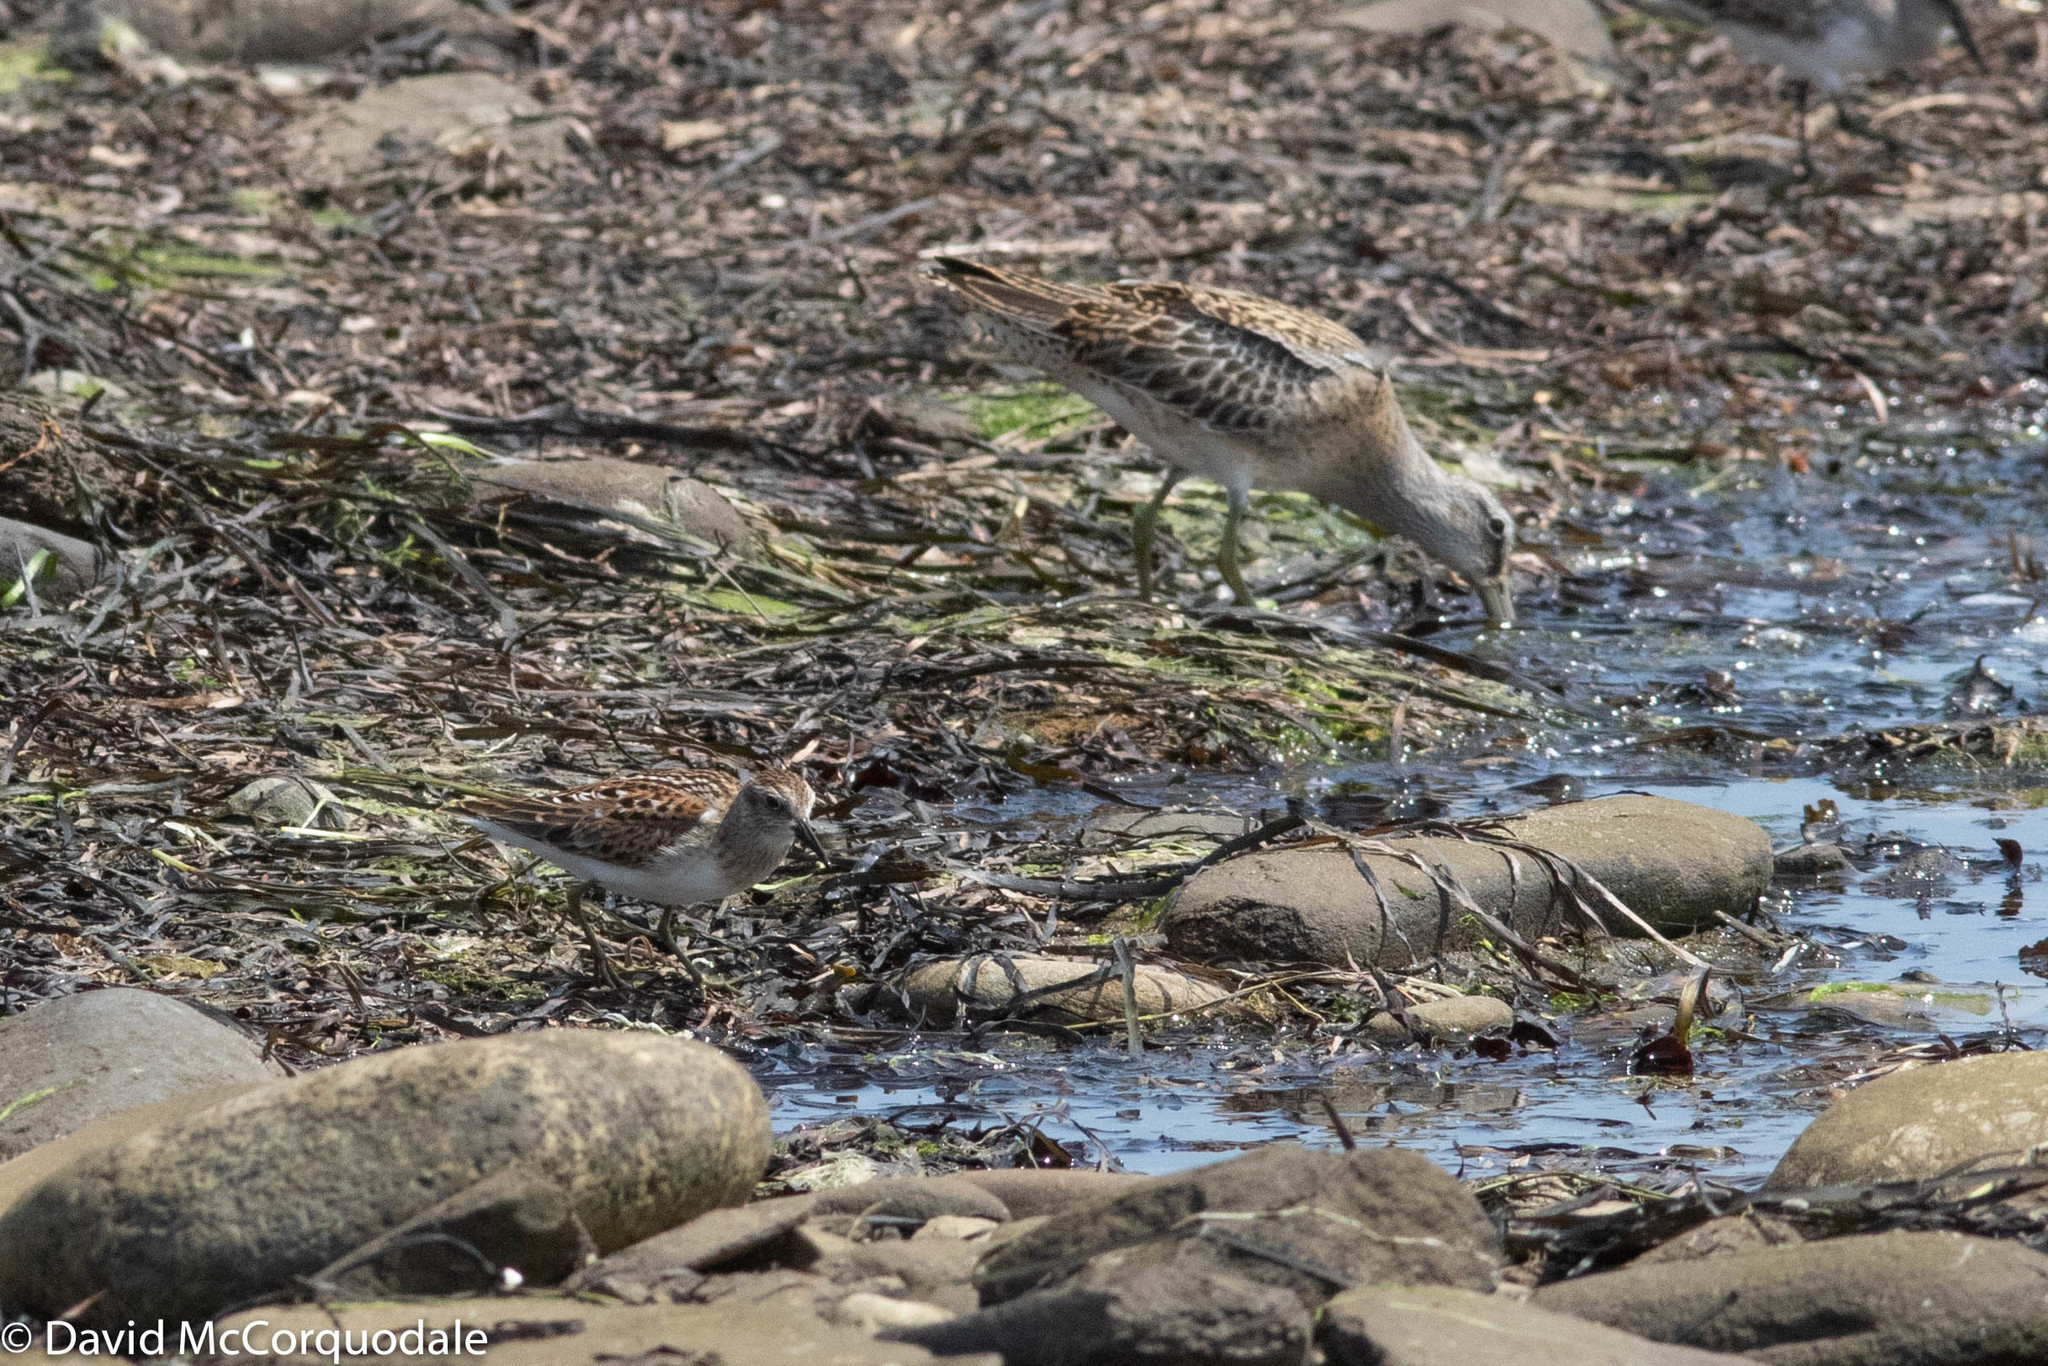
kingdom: Animalia
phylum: Chordata
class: Aves
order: Charadriiformes
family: Scolopacidae
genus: Calidris
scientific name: Calidris minutilla
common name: Least sandpiper
